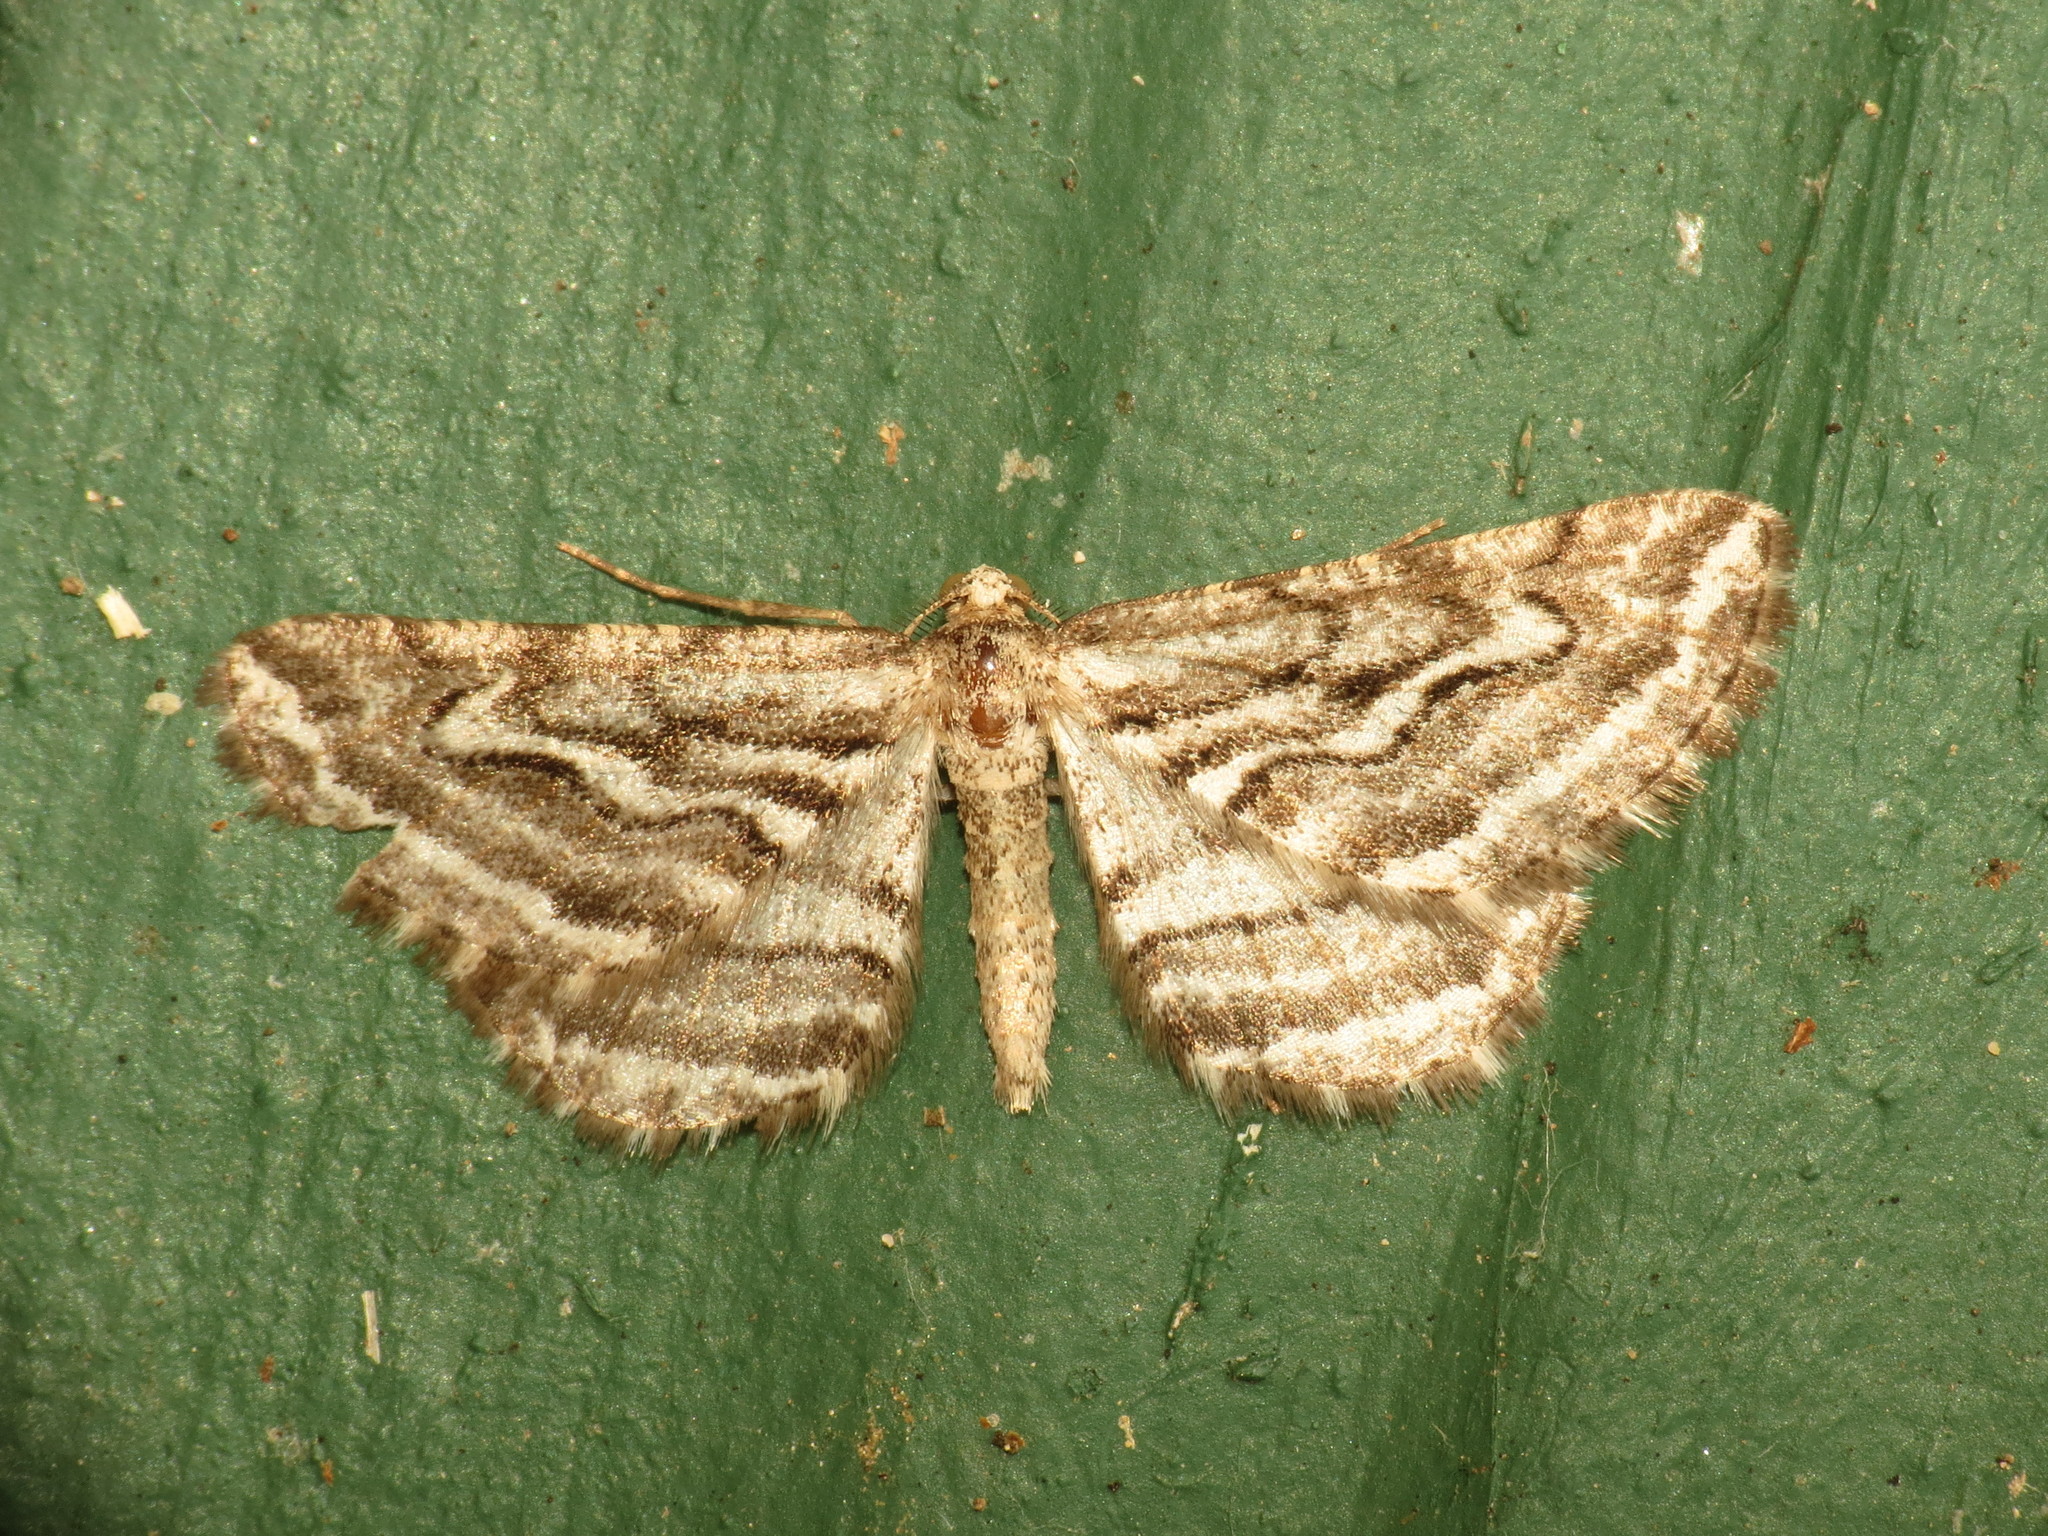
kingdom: Animalia
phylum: Arthropoda
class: Insecta
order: Lepidoptera
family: Geometridae
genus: Selidosema
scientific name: Selidosema
